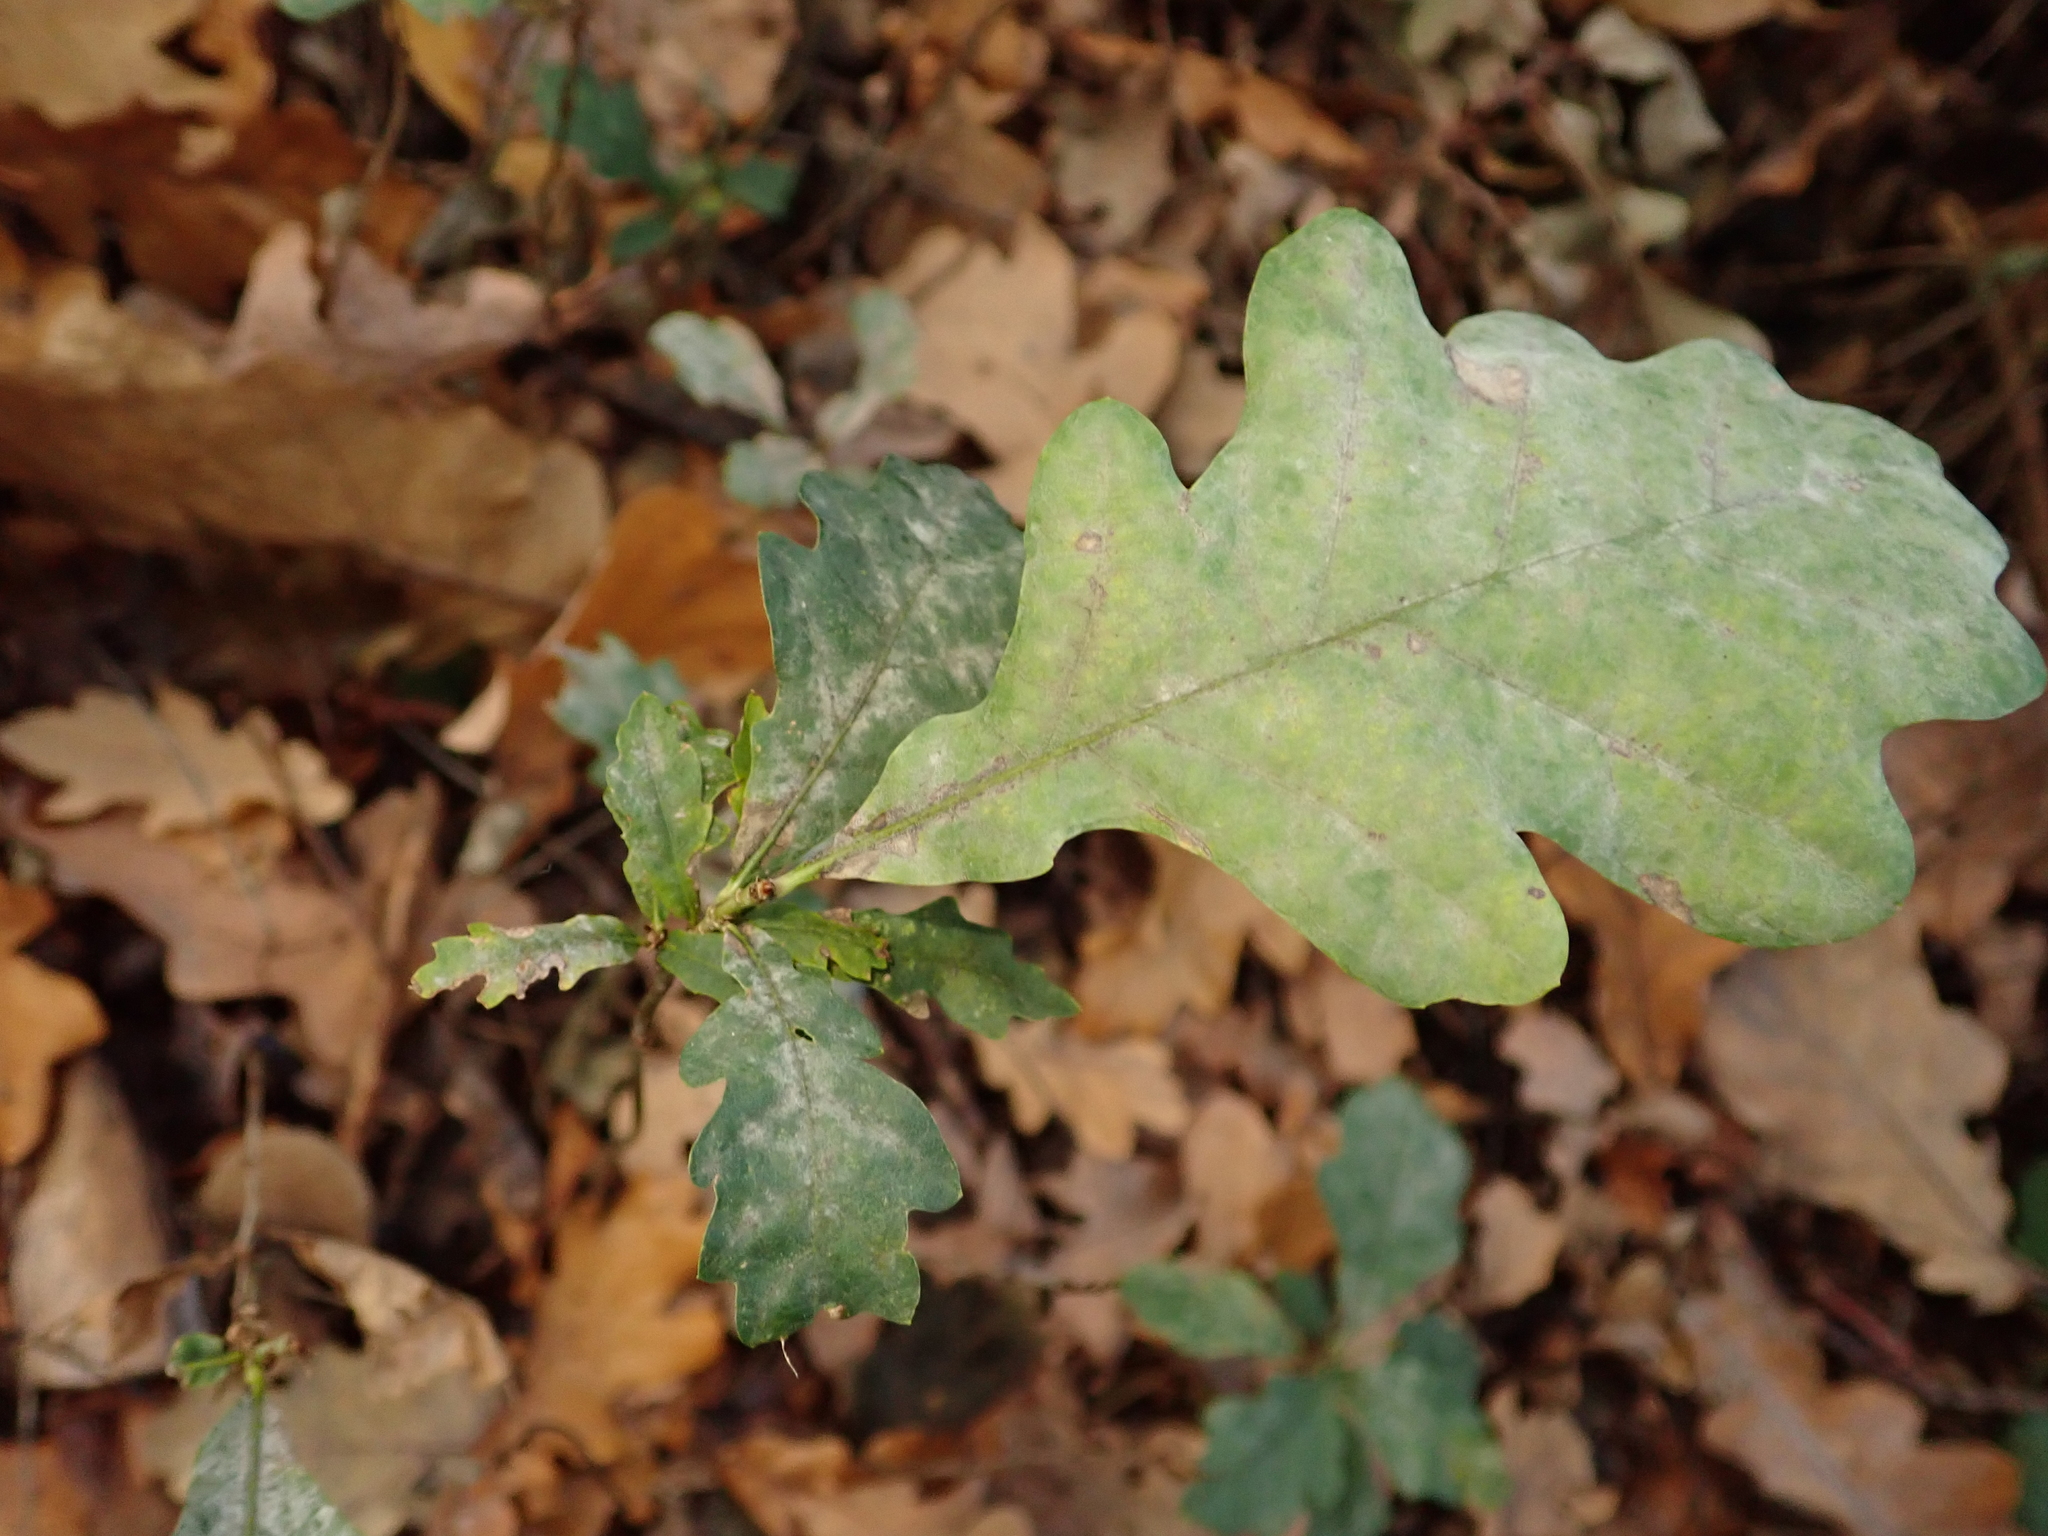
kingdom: Plantae
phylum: Tracheophyta
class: Magnoliopsida
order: Fagales
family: Fagaceae
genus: Quercus
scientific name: Quercus robur
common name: Pedunculate oak
